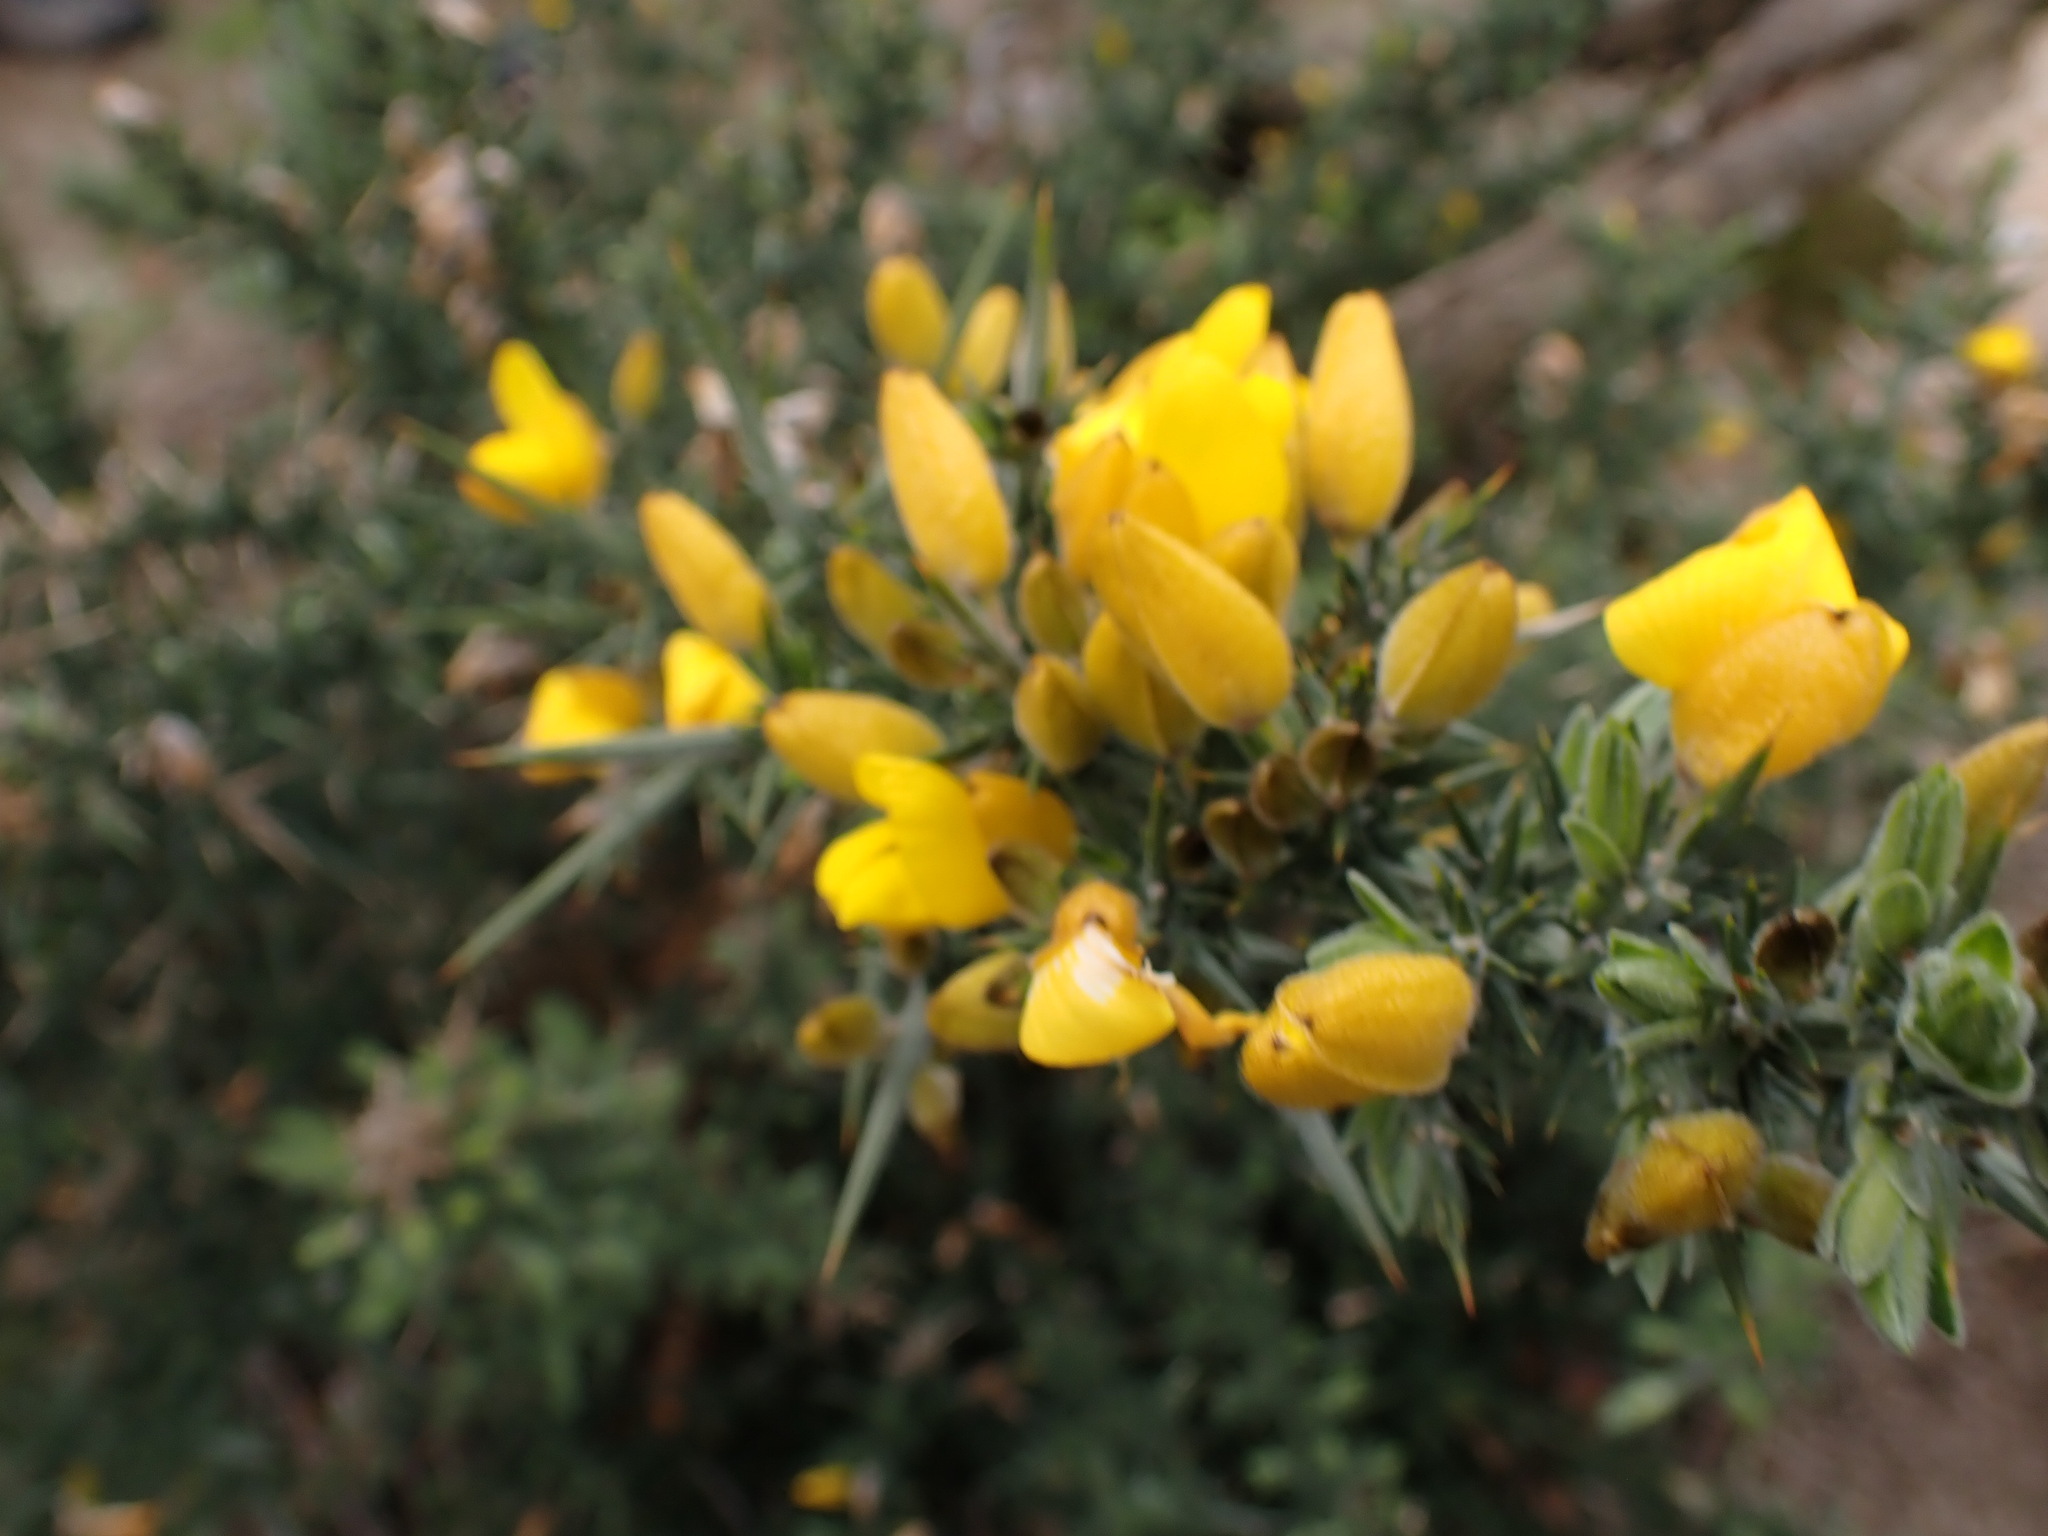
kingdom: Plantae
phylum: Tracheophyta
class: Magnoliopsida
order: Fabales
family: Fabaceae
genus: Ulex
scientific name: Ulex europaeus
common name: Common gorse
